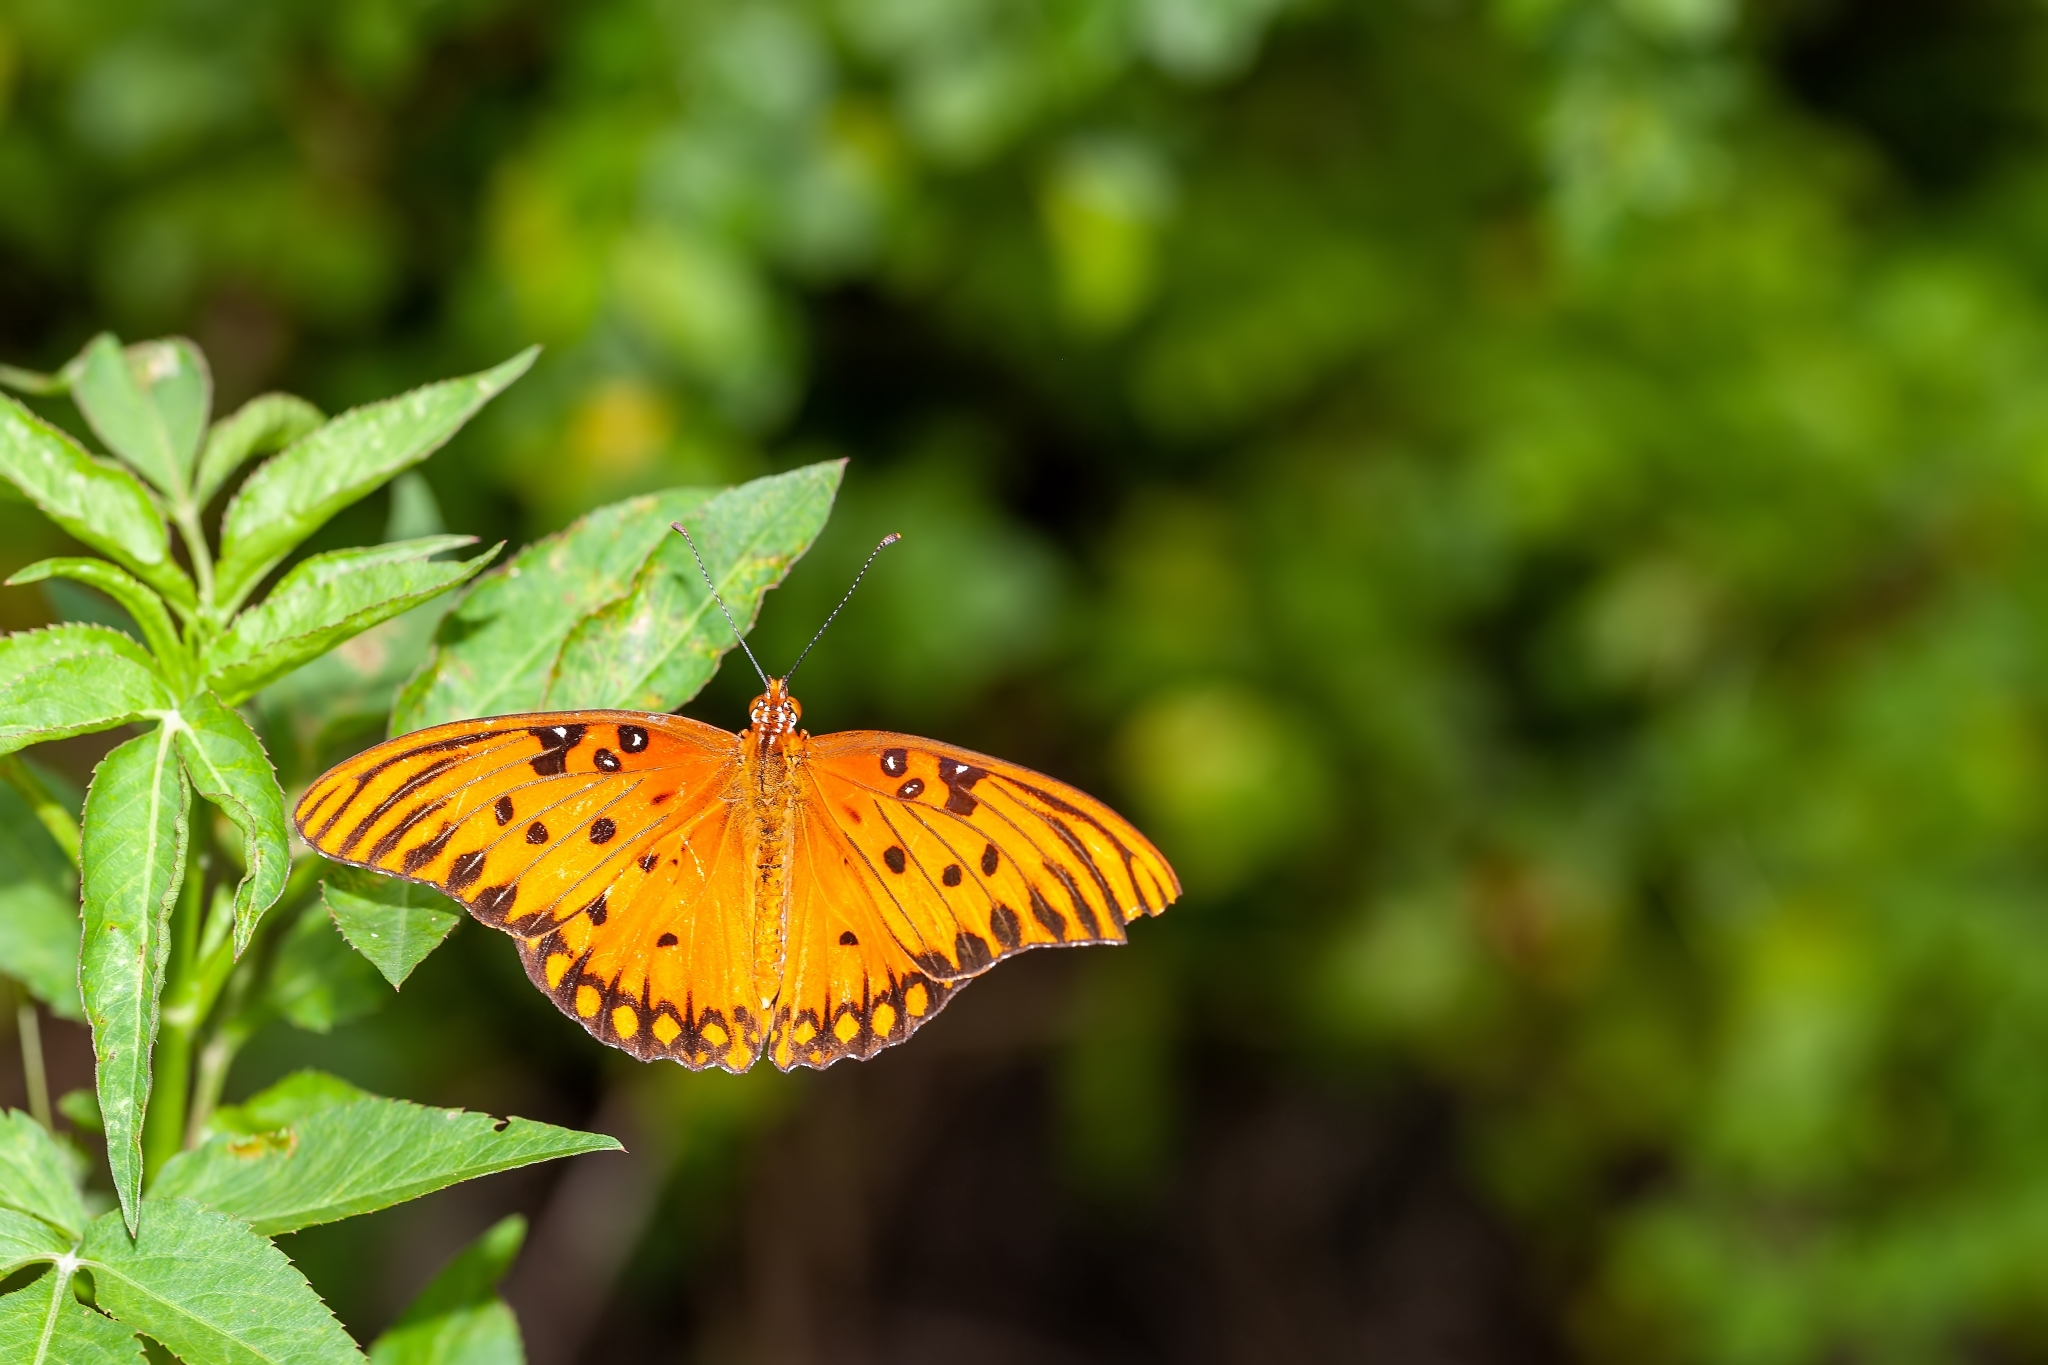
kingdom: Animalia
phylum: Arthropoda
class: Insecta
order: Lepidoptera
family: Nymphalidae
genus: Dione
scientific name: Dione vanillae
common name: Gulf fritillary
